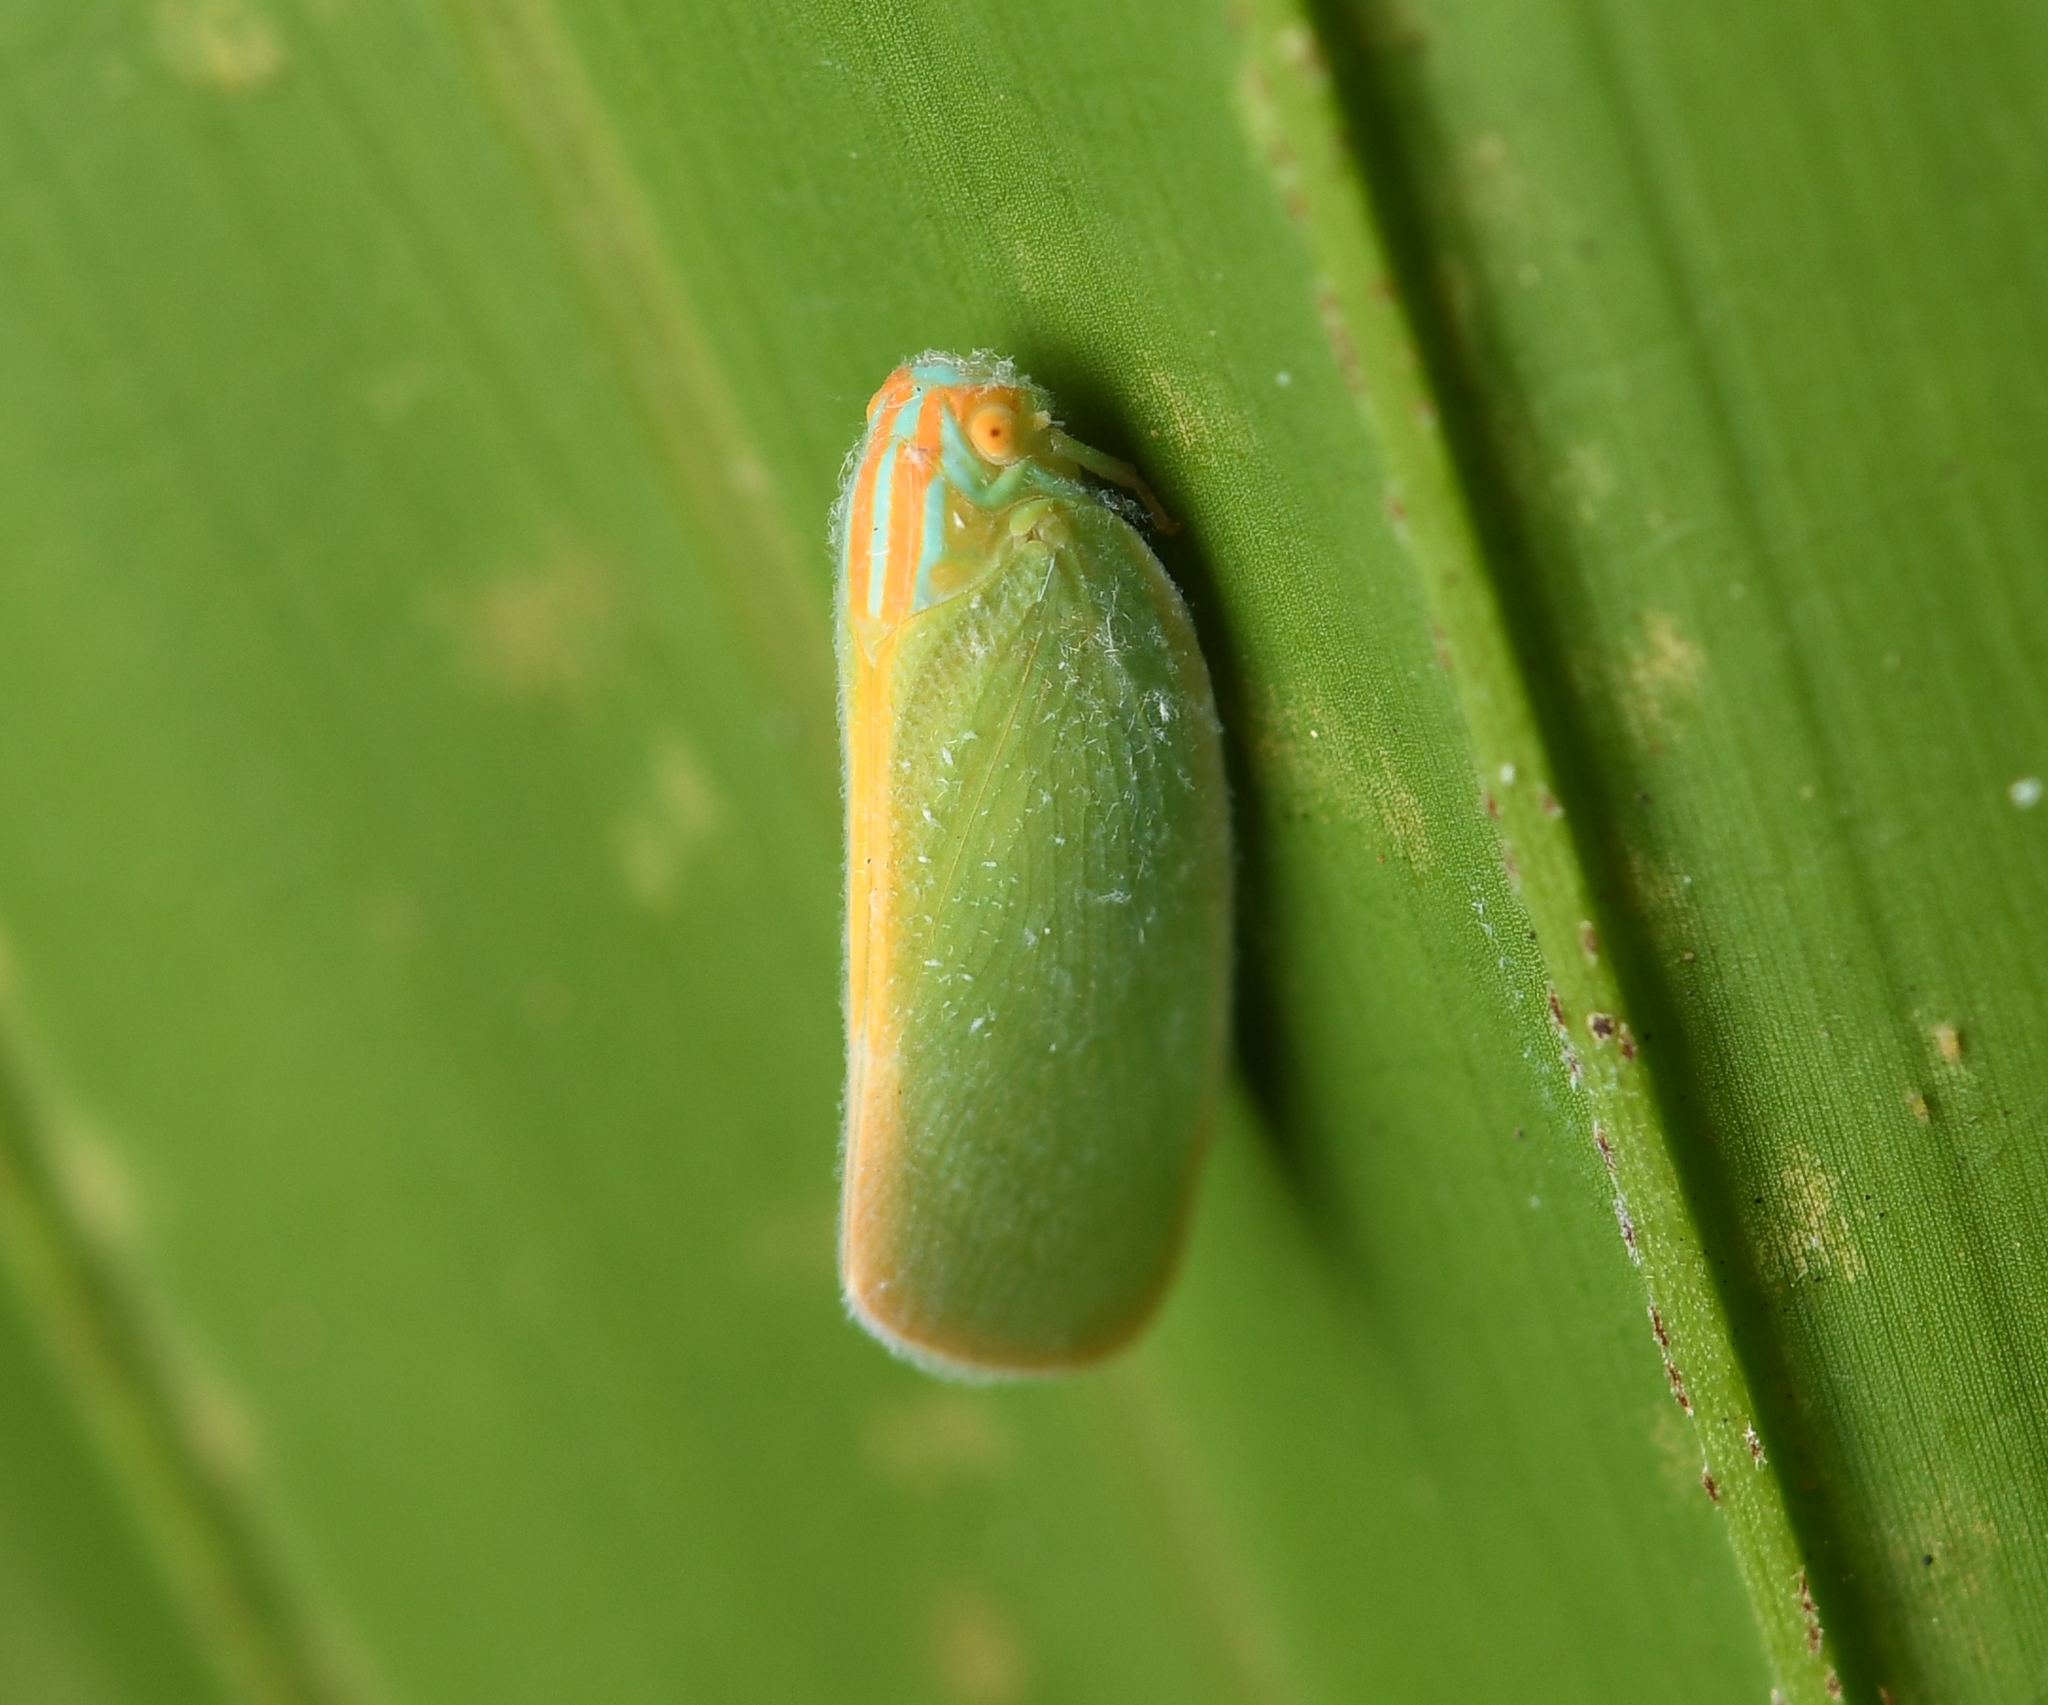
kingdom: Animalia
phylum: Arthropoda
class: Insecta
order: Hemiptera
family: Flatidae
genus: Ormenaria
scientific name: Ormenaria rufifascia
